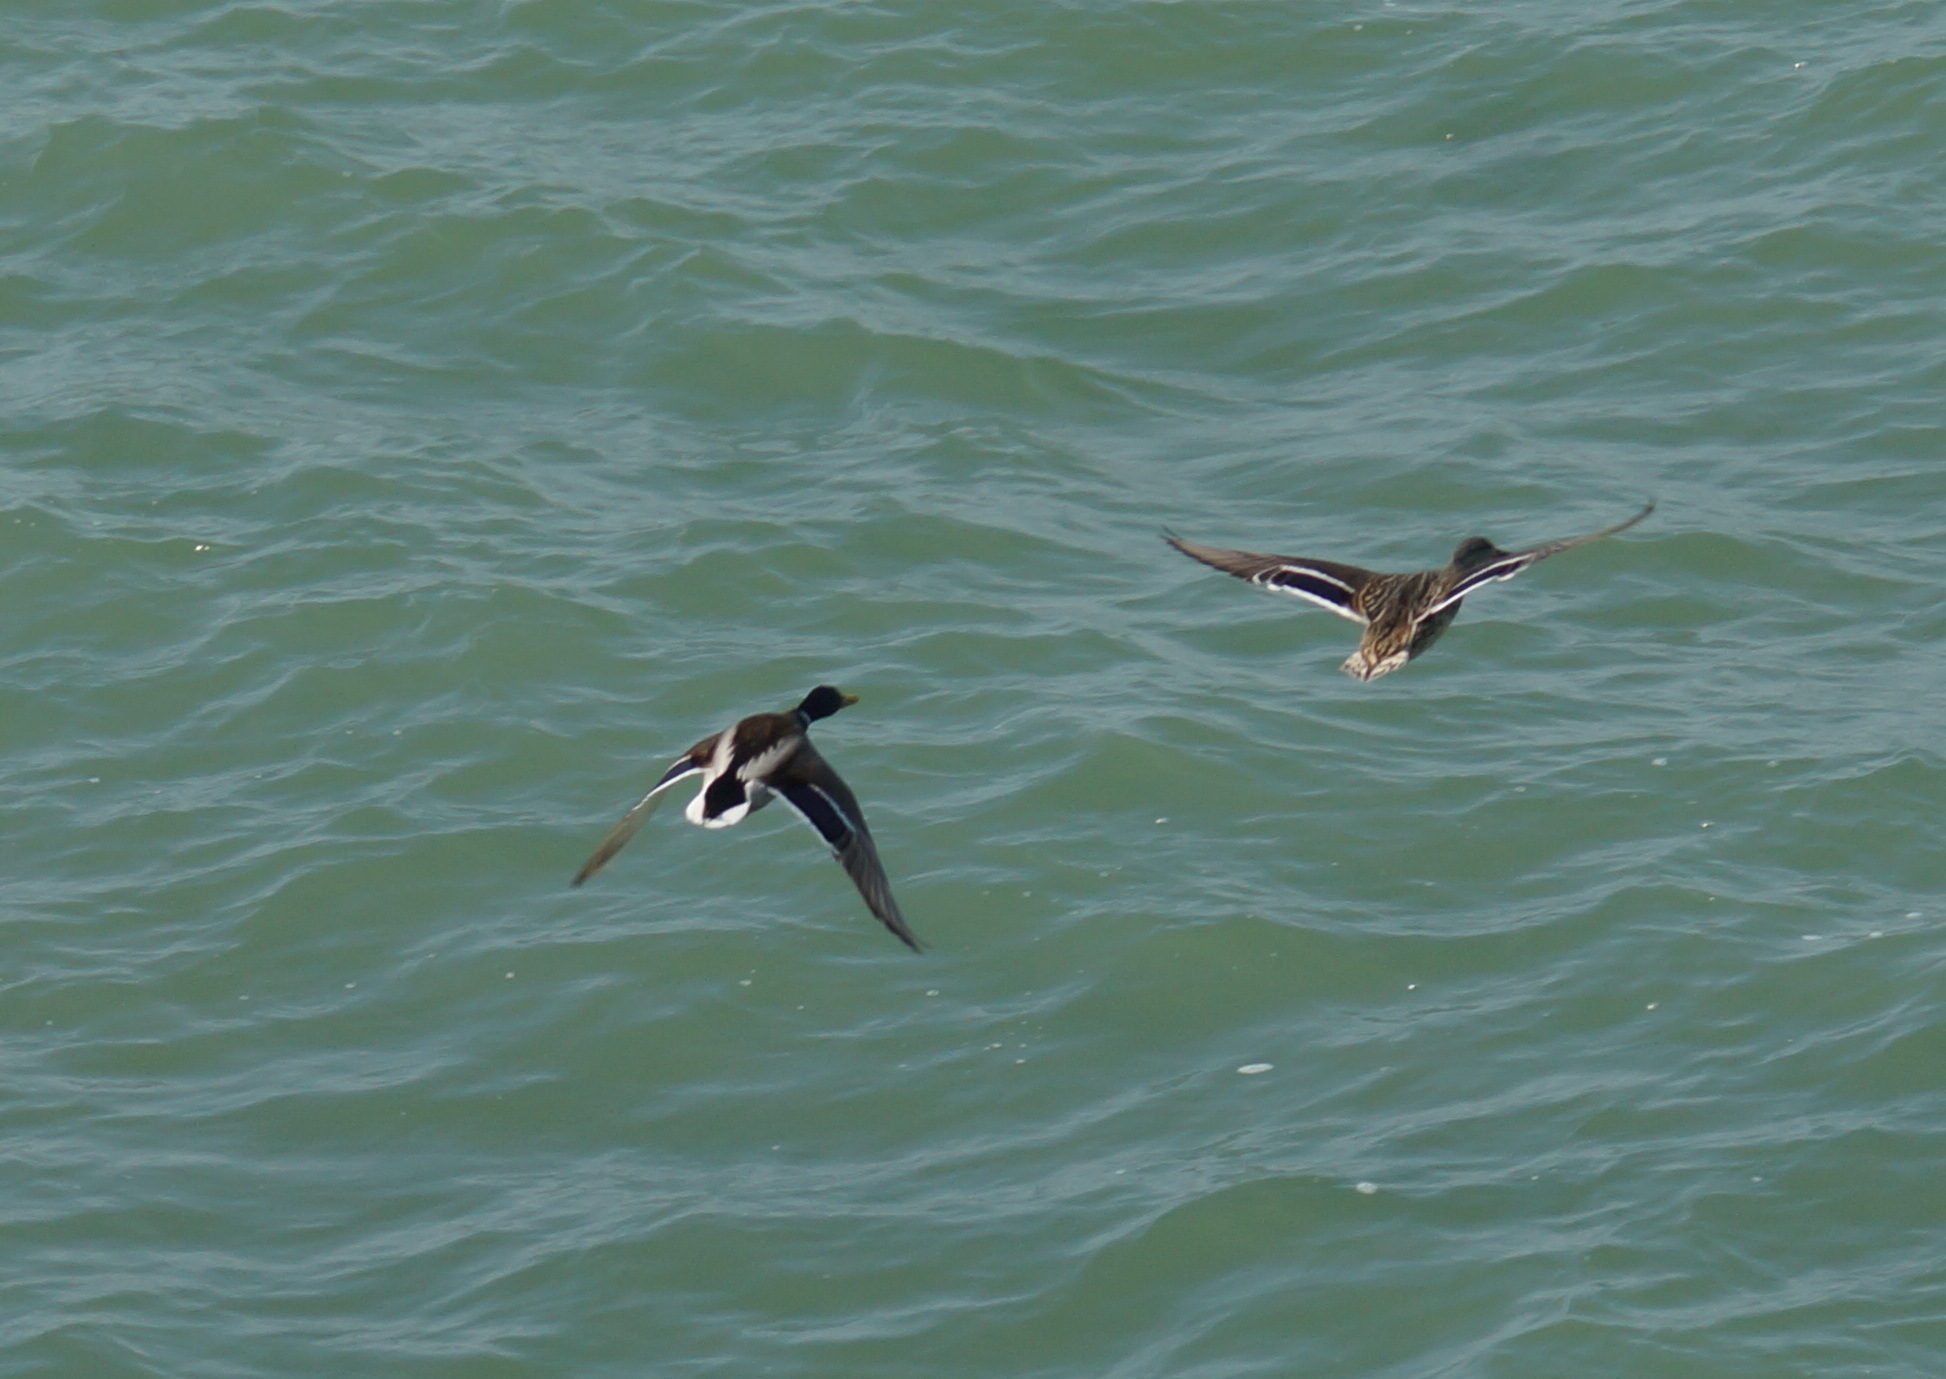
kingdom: Animalia
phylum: Chordata
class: Aves
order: Anseriformes
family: Anatidae
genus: Anas
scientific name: Anas platyrhynchos
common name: Mallard
